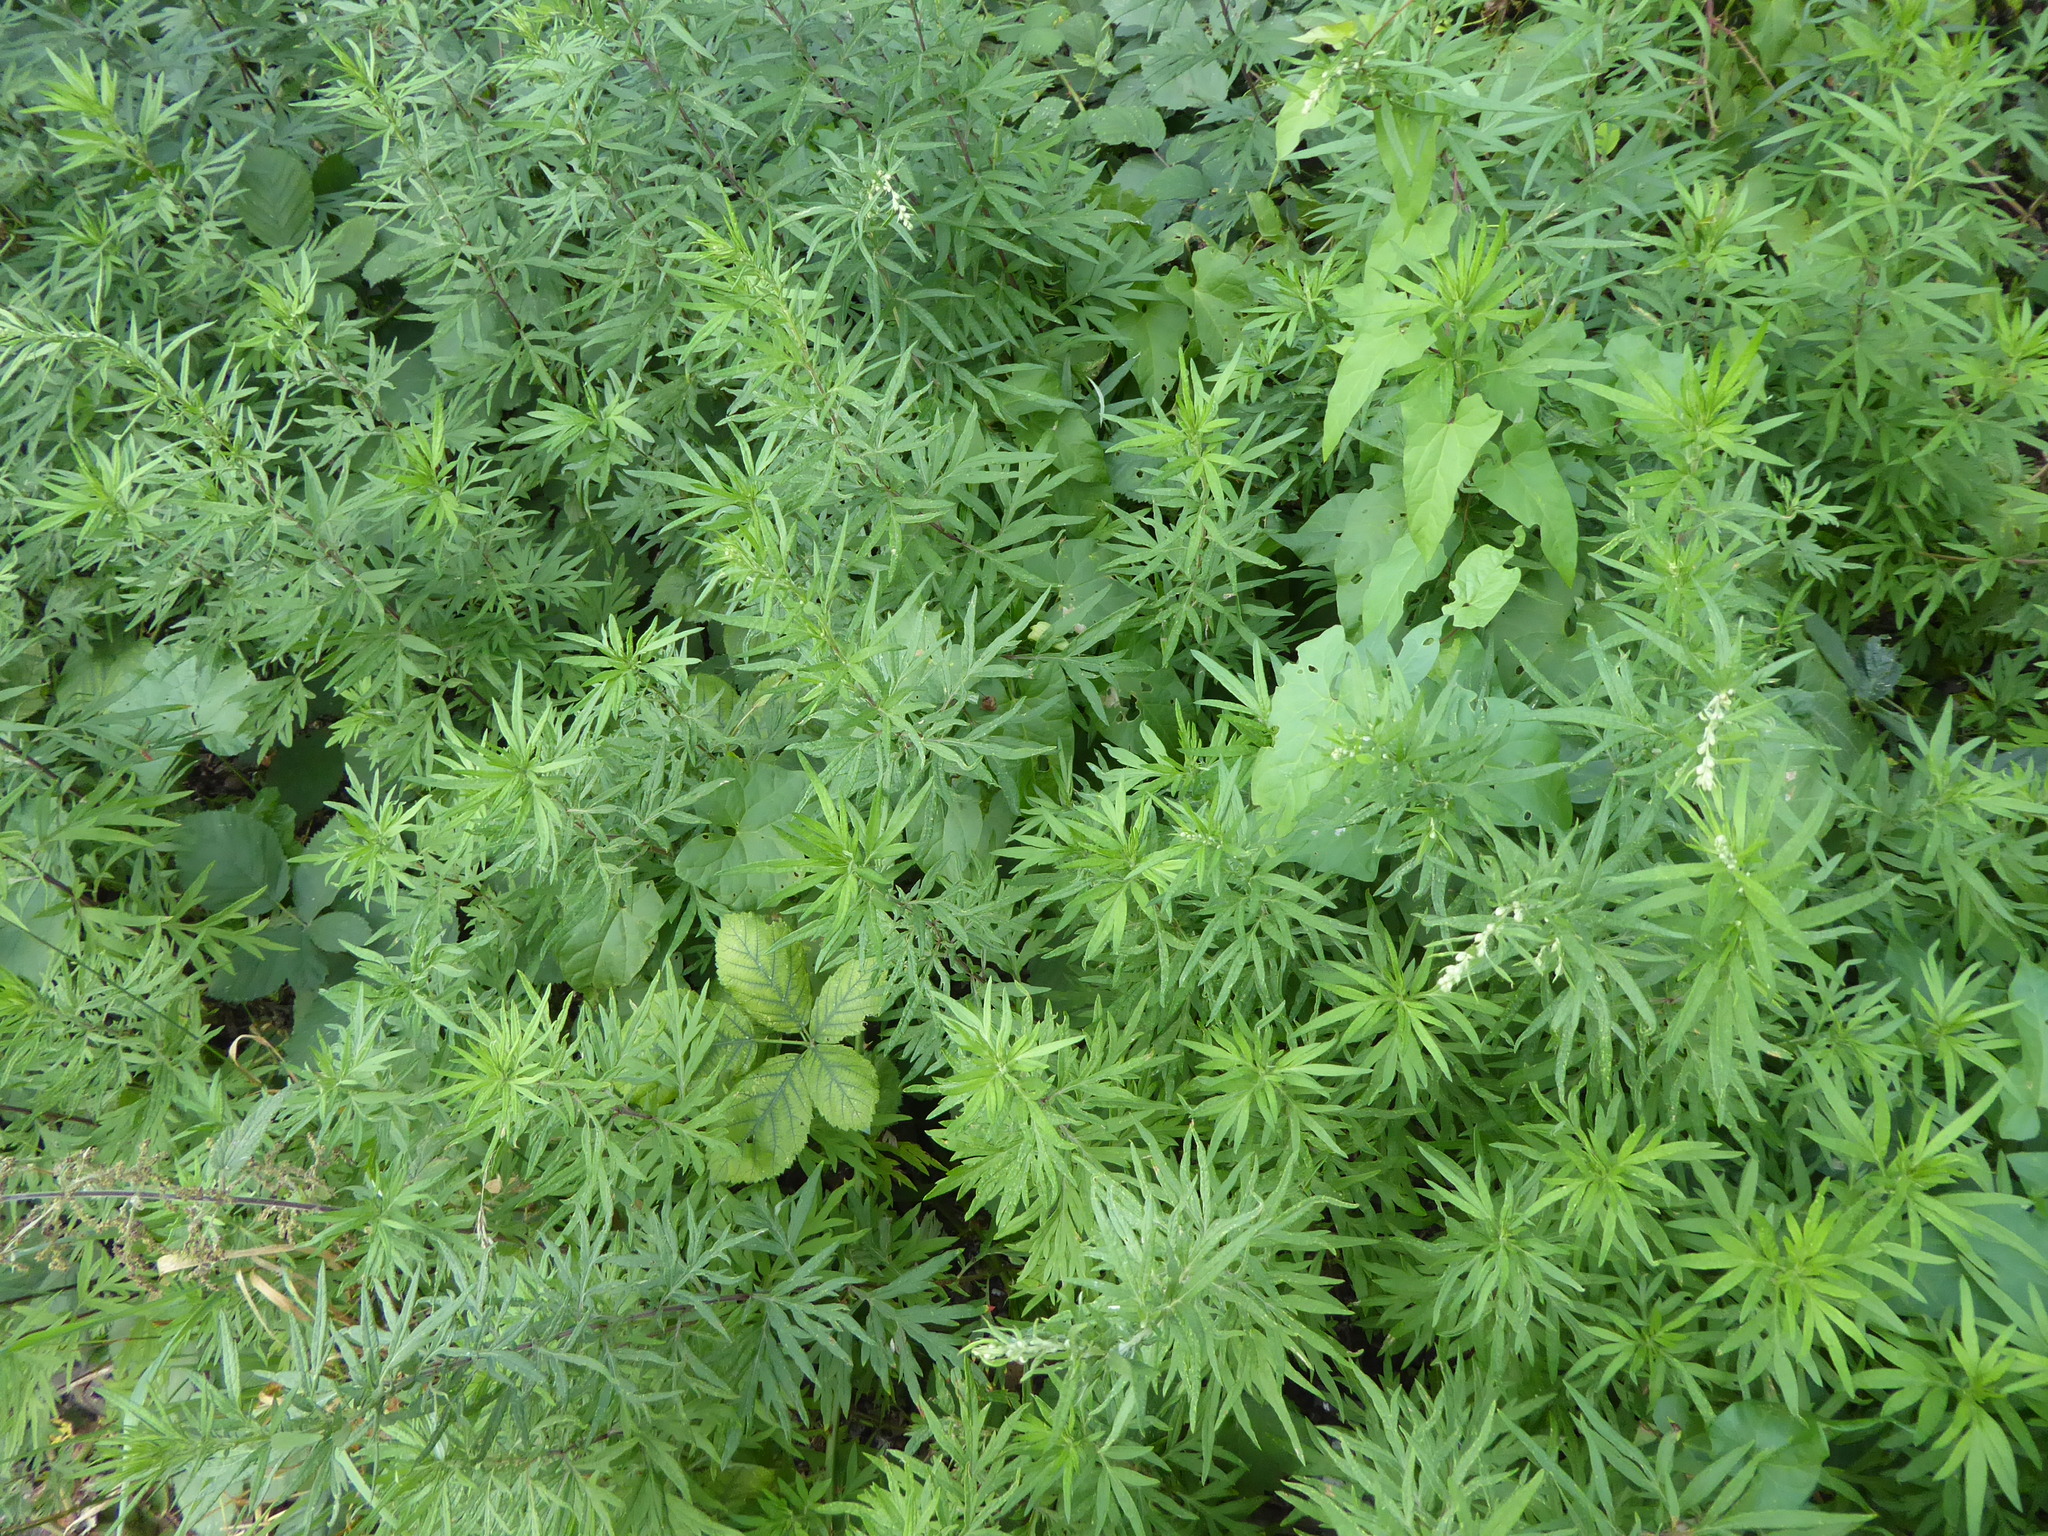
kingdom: Plantae
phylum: Tracheophyta
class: Magnoliopsida
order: Asterales
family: Asteraceae
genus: Artemisia
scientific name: Artemisia verlotiorum
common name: Chinese mugwort
